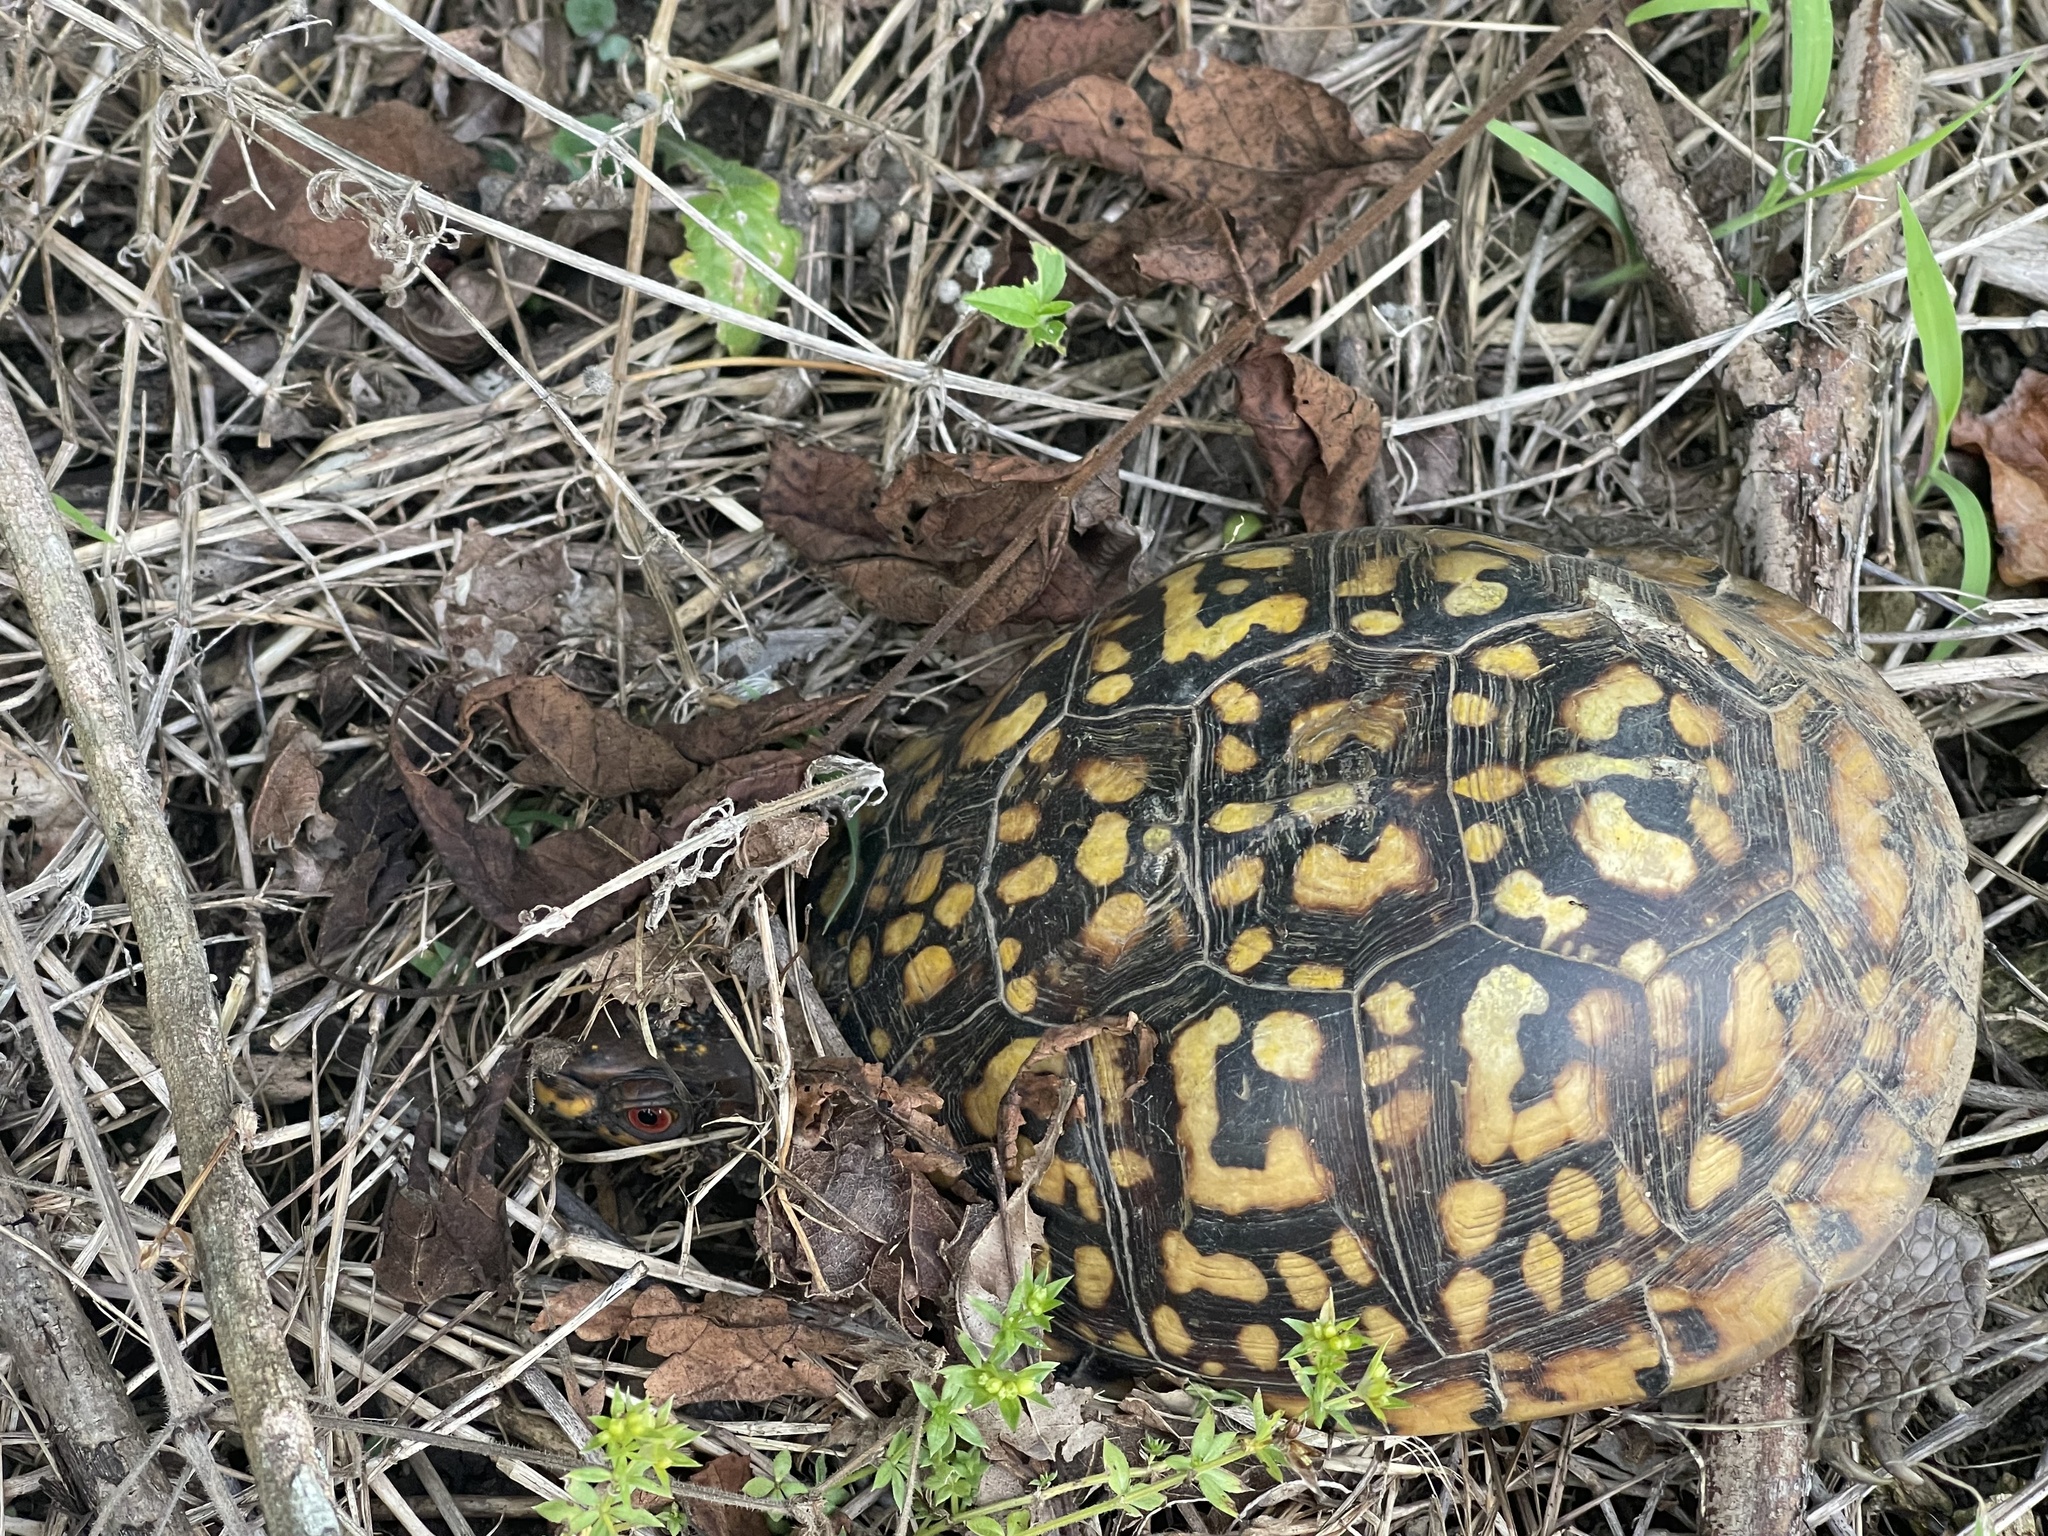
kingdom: Animalia
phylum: Chordata
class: Testudines
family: Emydidae
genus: Terrapene
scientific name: Terrapene carolina
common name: Common box turtle
